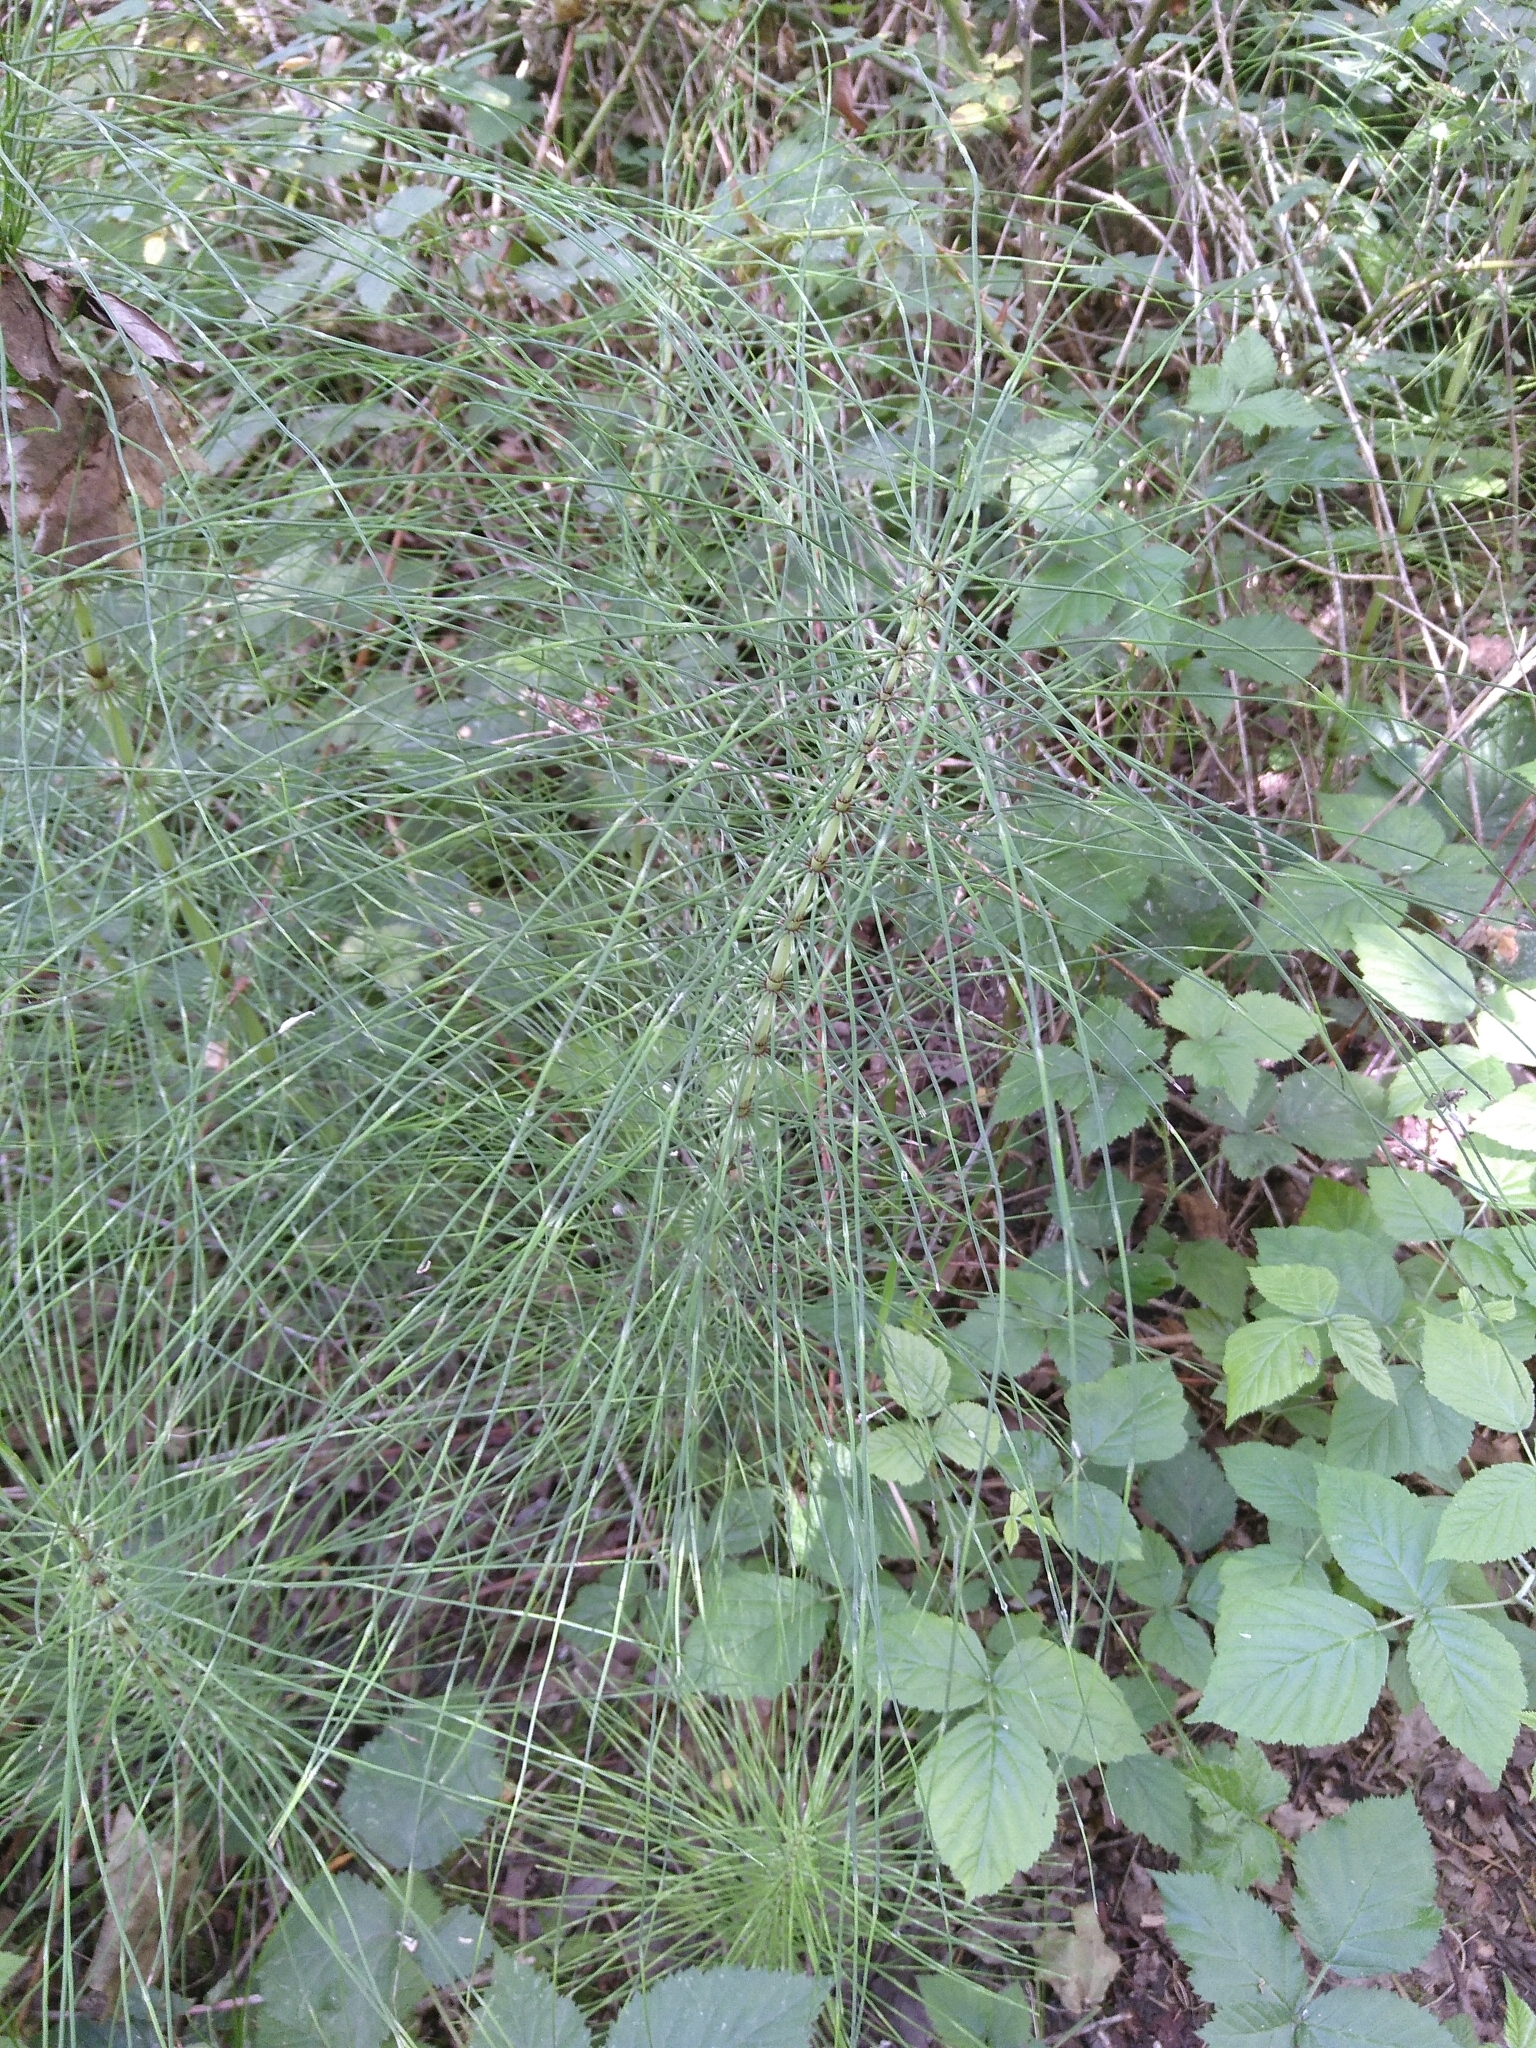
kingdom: Plantae
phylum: Tracheophyta
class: Polypodiopsida
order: Equisetales
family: Equisetaceae
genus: Equisetum
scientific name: Equisetum telmateia
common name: Great horsetail
